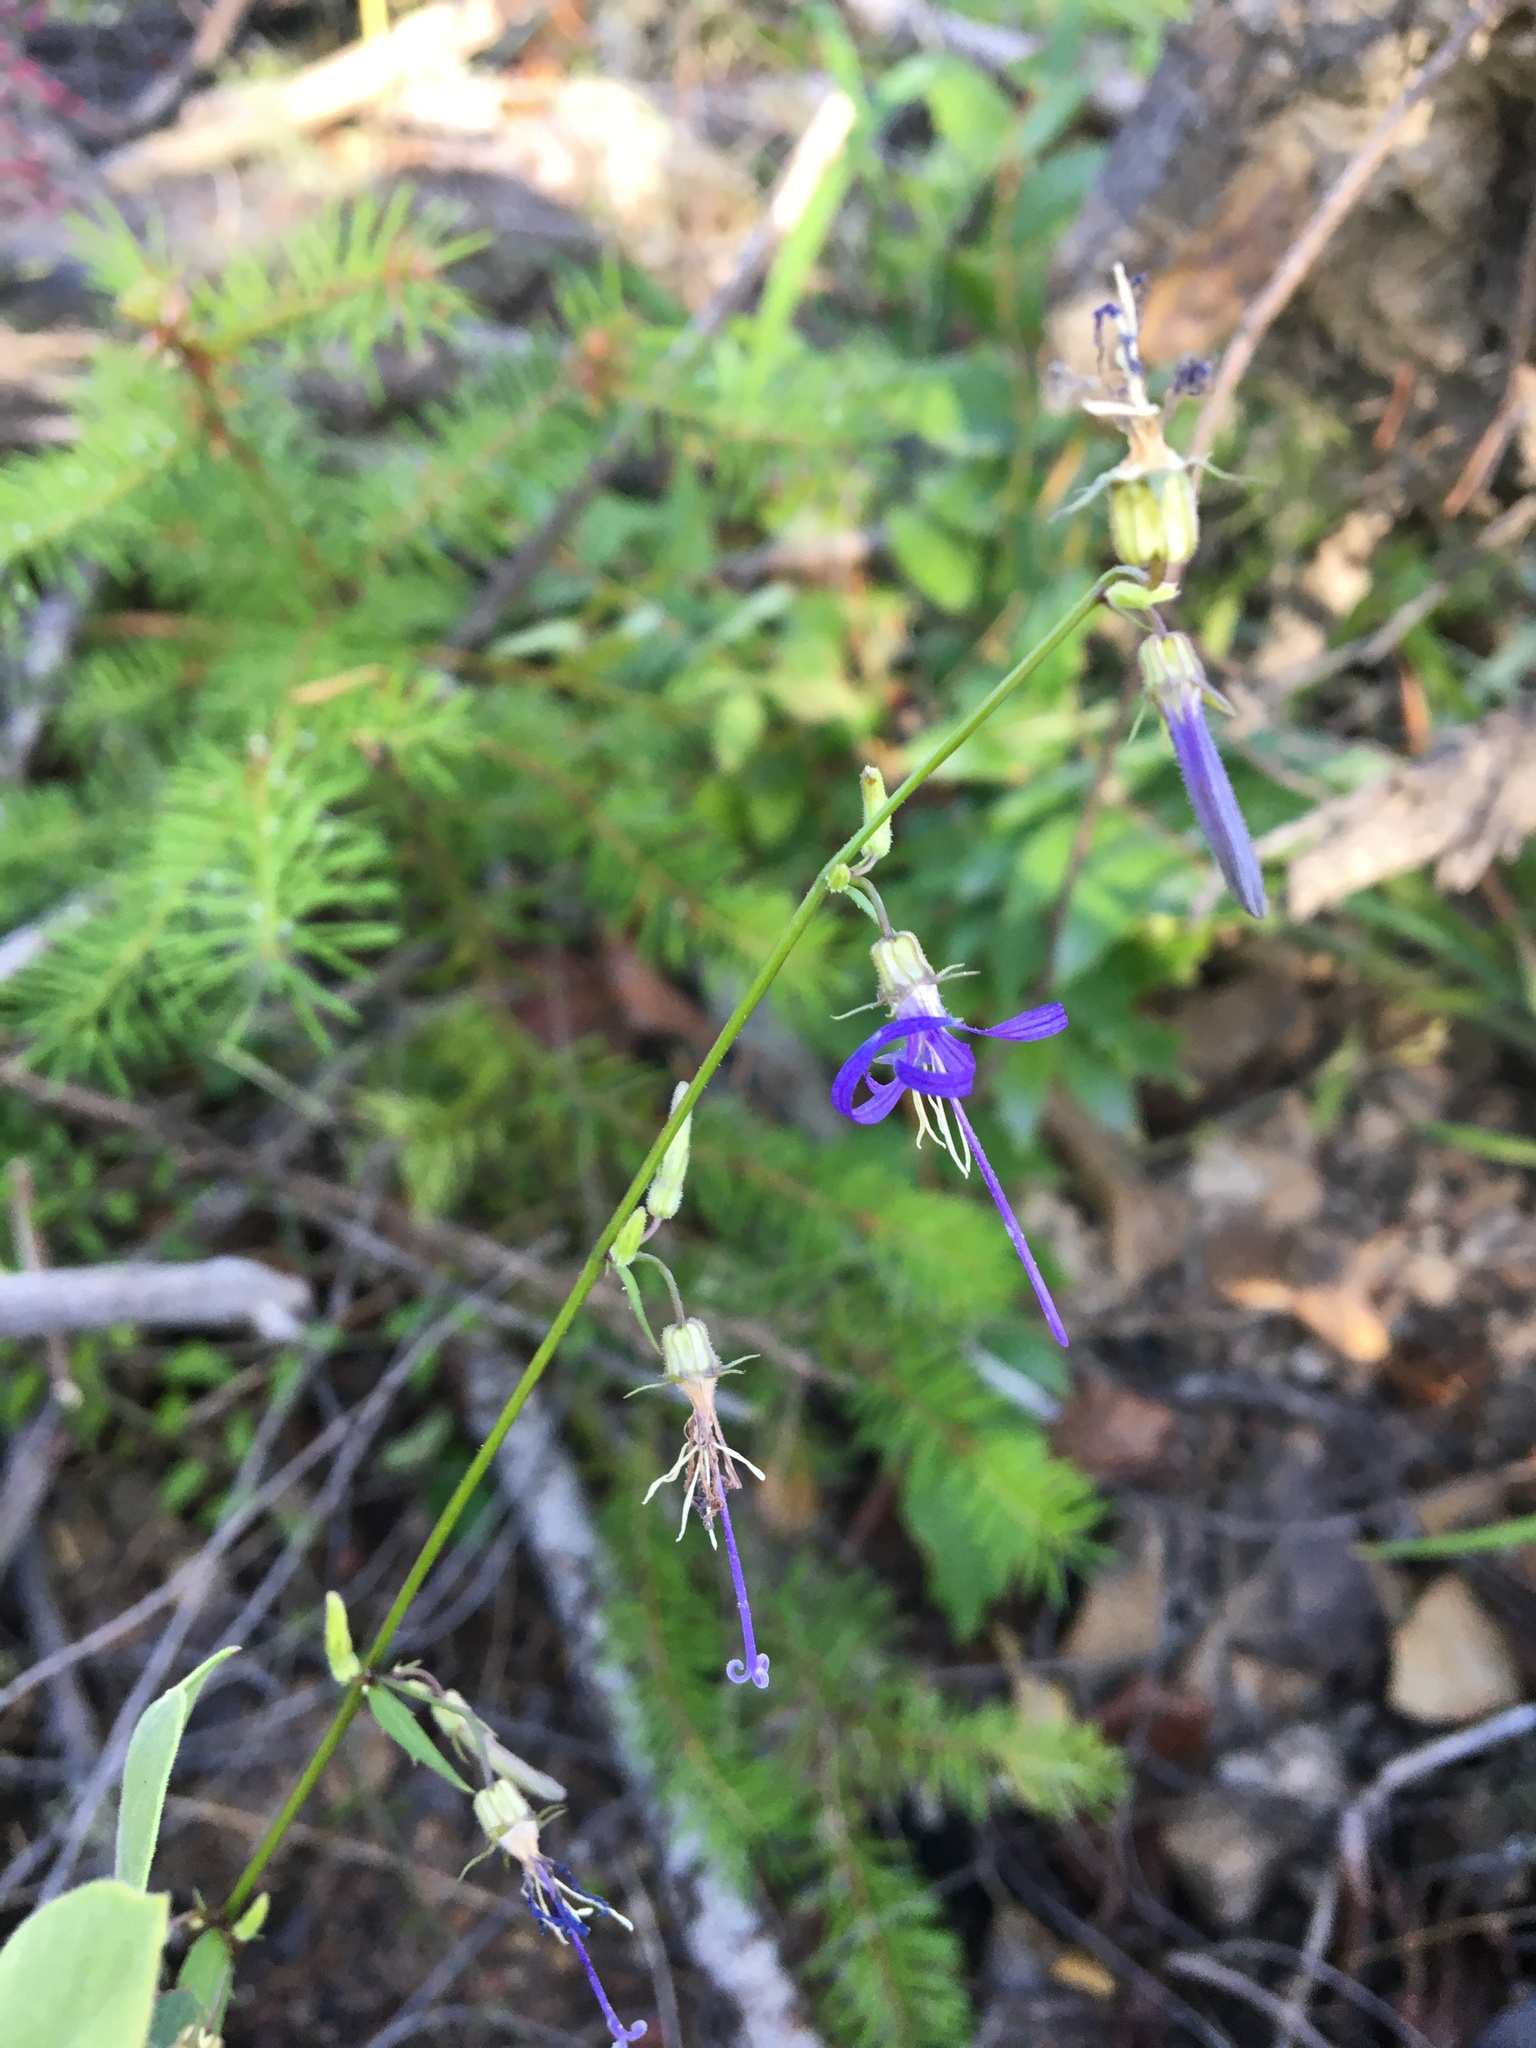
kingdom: Plantae
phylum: Tracheophyta
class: Magnoliopsida
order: Asterales
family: Campanulaceae
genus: Smithiastrum
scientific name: Smithiastrum prenanthoides
